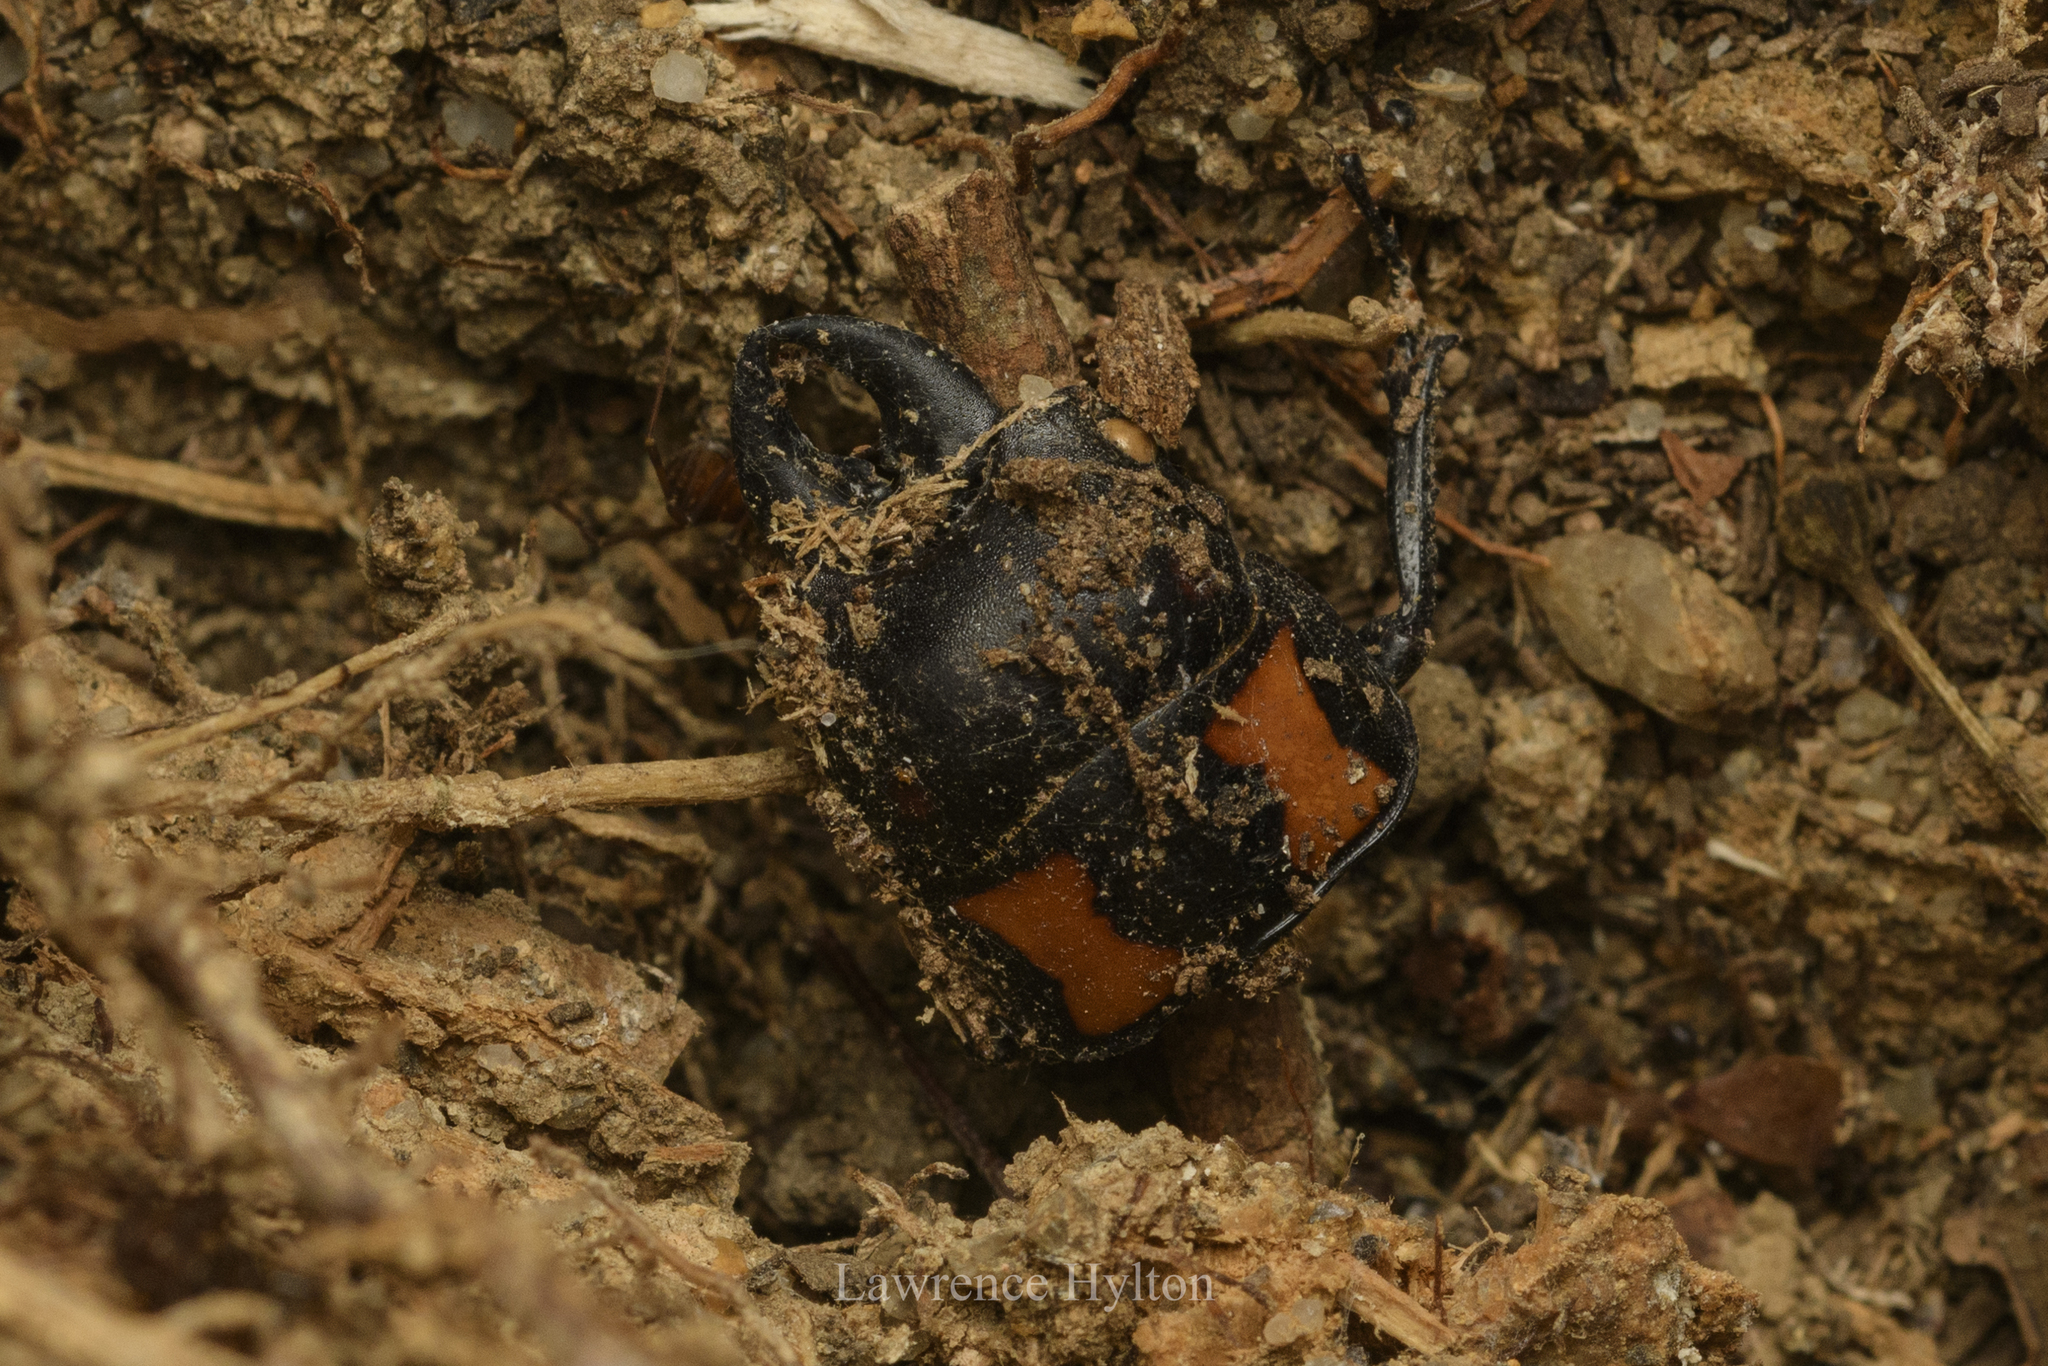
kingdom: Animalia
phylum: Arthropoda
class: Insecta
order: Coleoptera
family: Lucanidae
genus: Prosopocoilus
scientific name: Prosopocoilus biplagiatus
